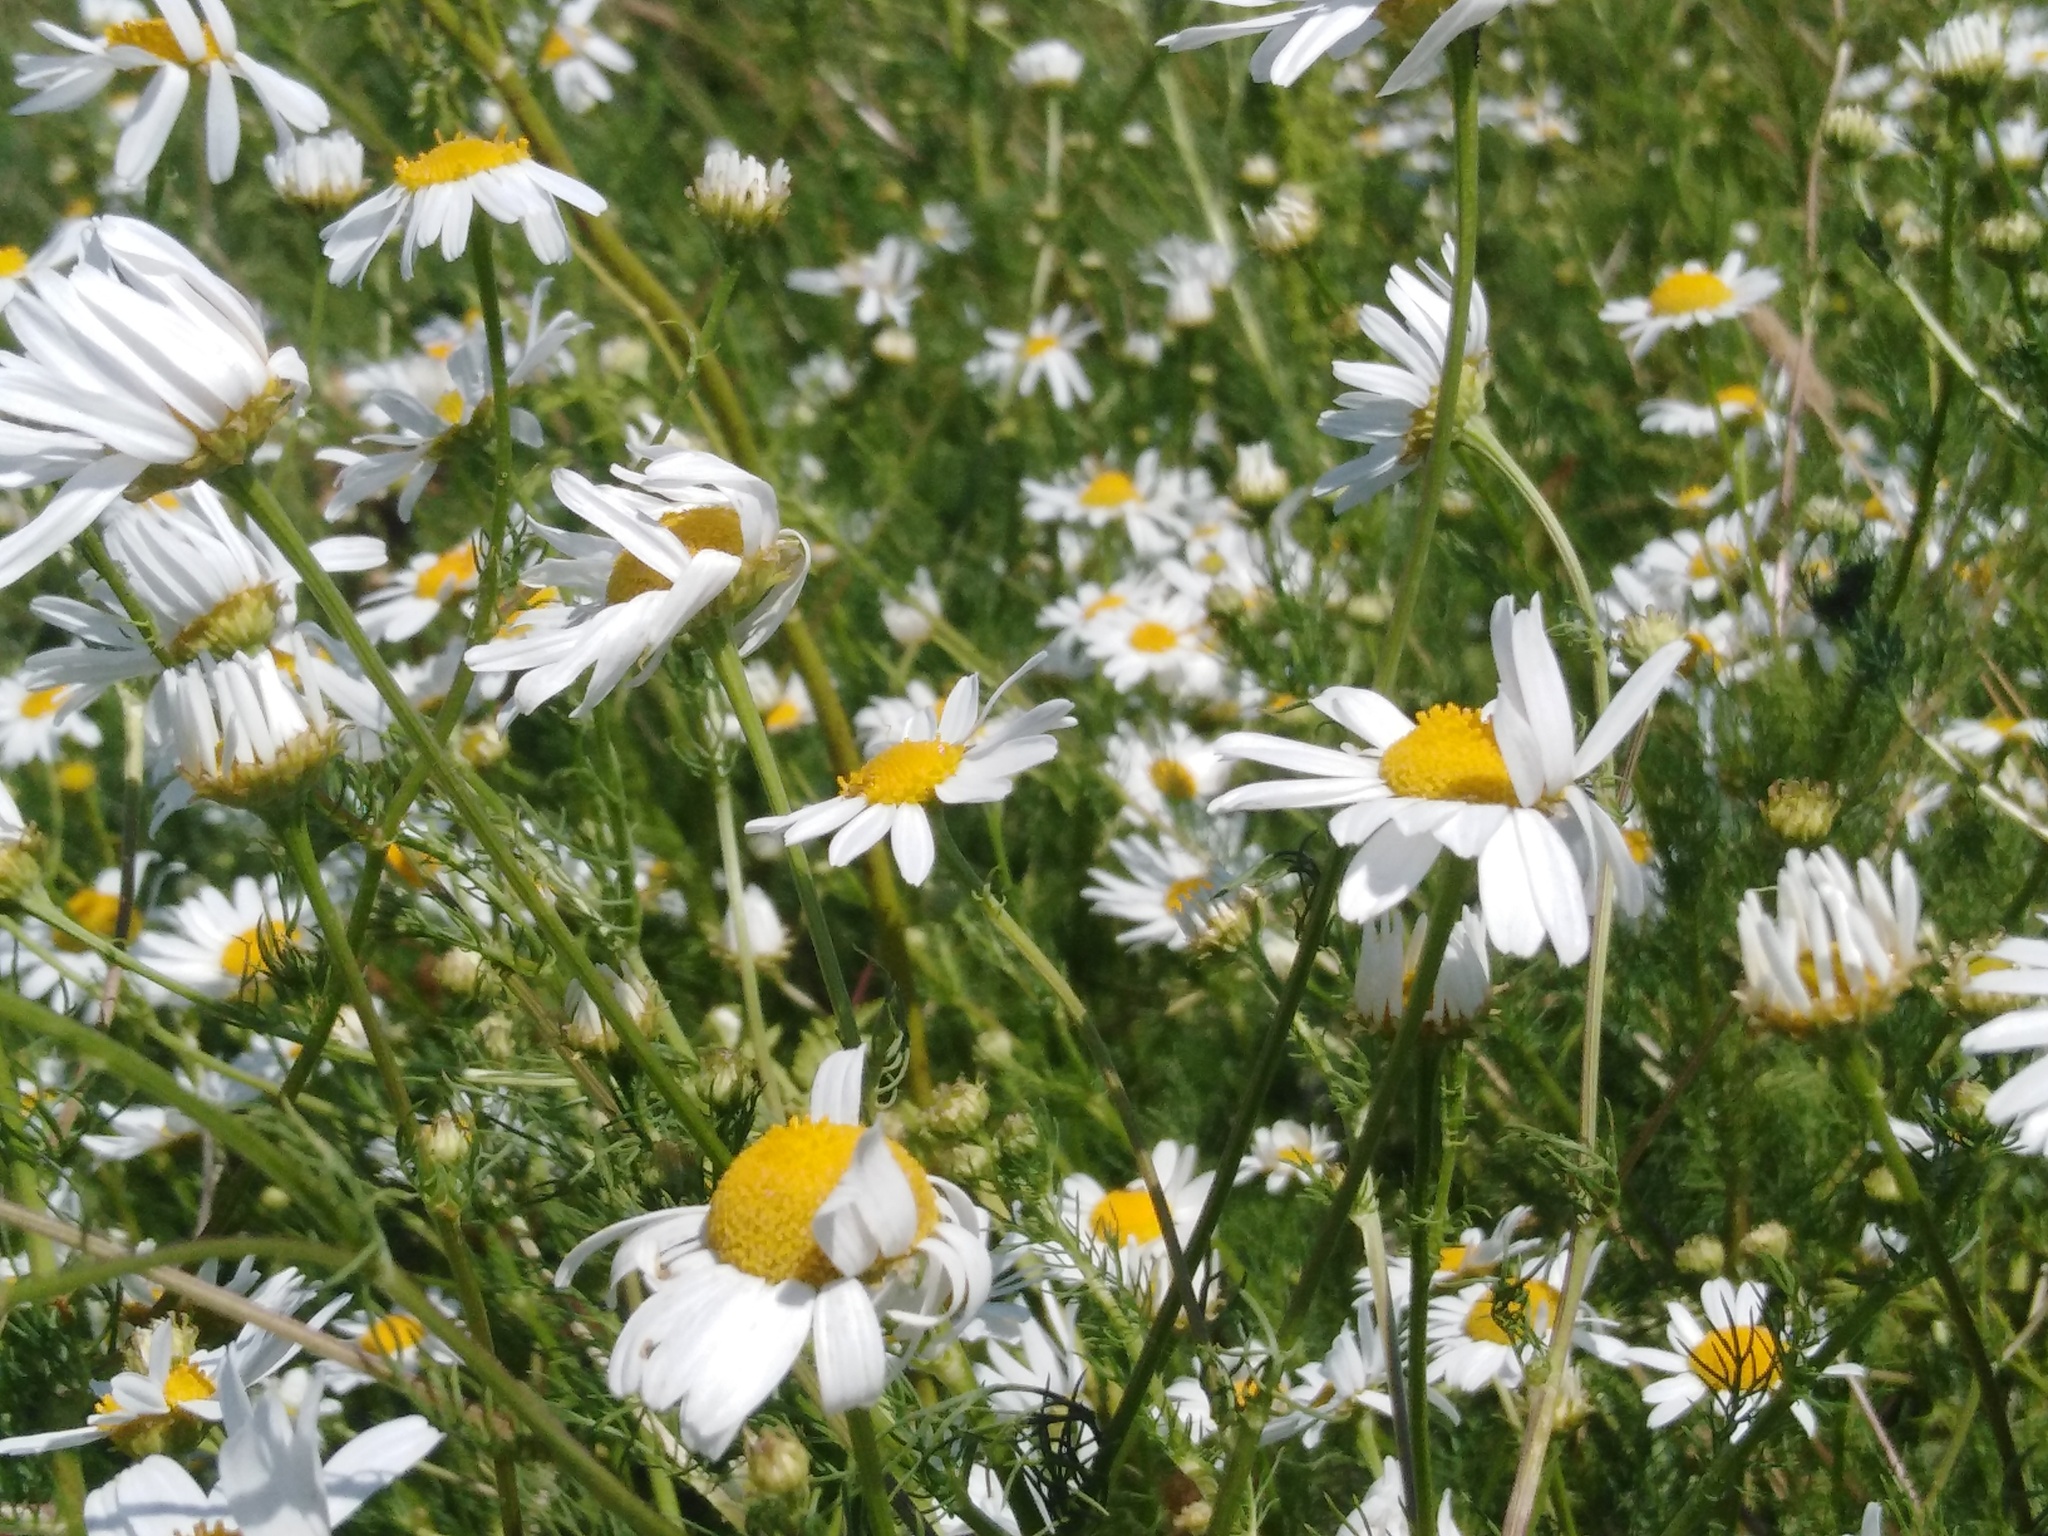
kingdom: Plantae
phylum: Tracheophyta
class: Magnoliopsida
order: Asterales
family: Asteraceae
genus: Tripleurospermum
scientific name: Tripleurospermum inodorum
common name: Scentless mayweed
